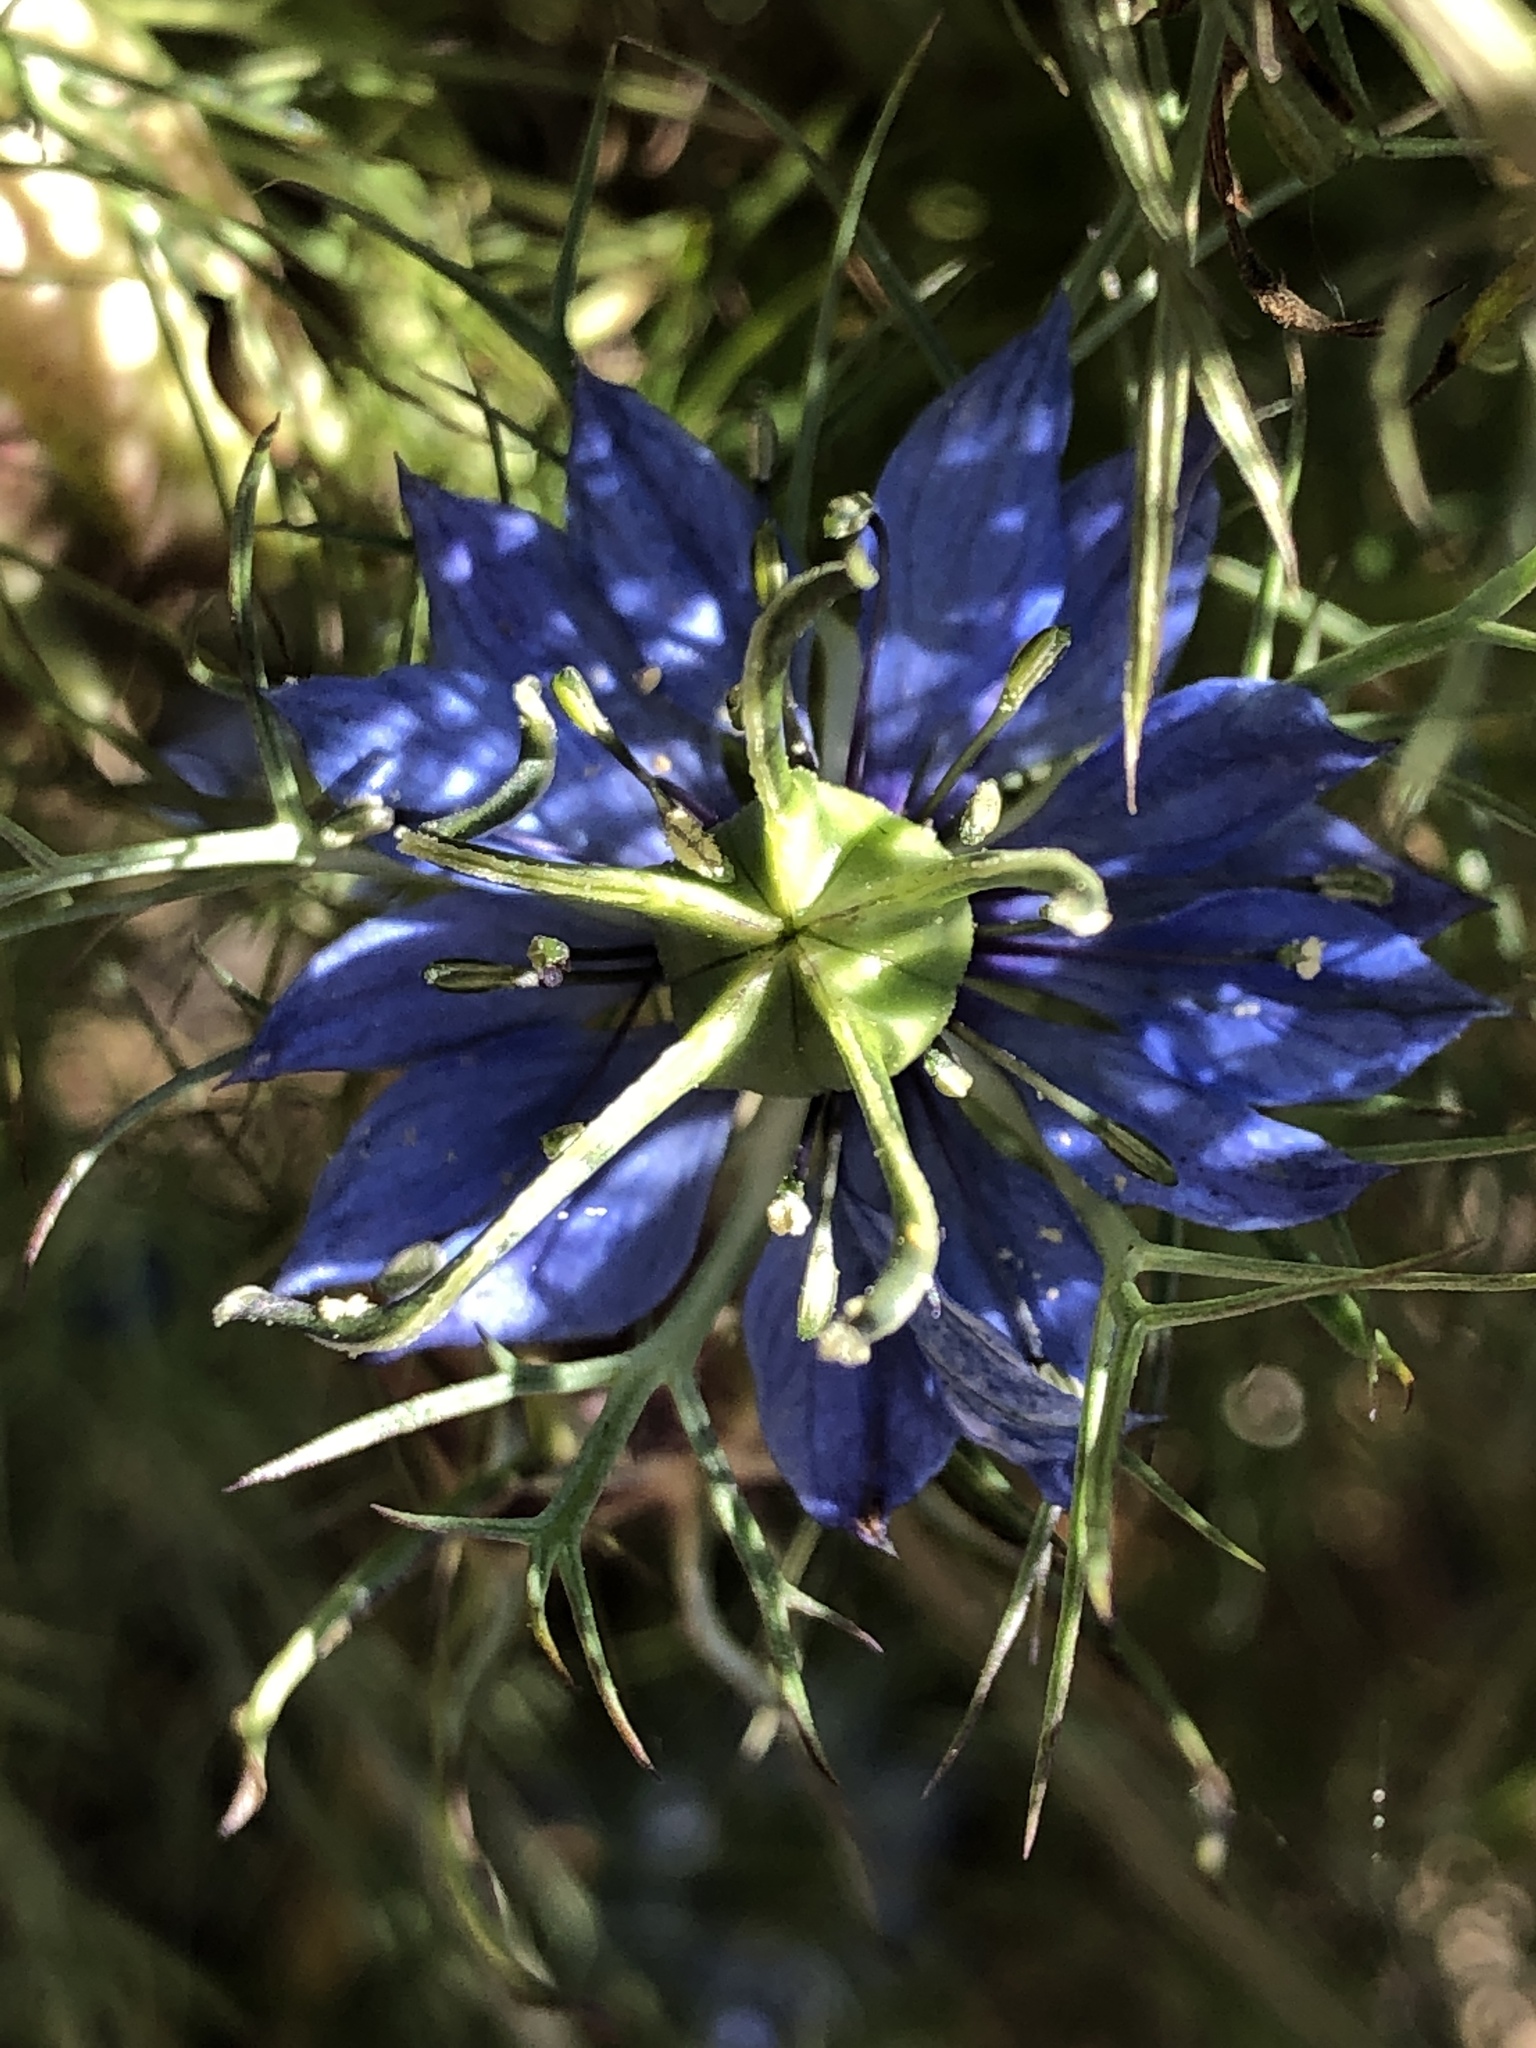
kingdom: Plantae
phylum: Tracheophyta
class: Magnoliopsida
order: Ranunculales
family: Ranunculaceae
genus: Nigella
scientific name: Nigella damascena
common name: Love-in-a-mist
